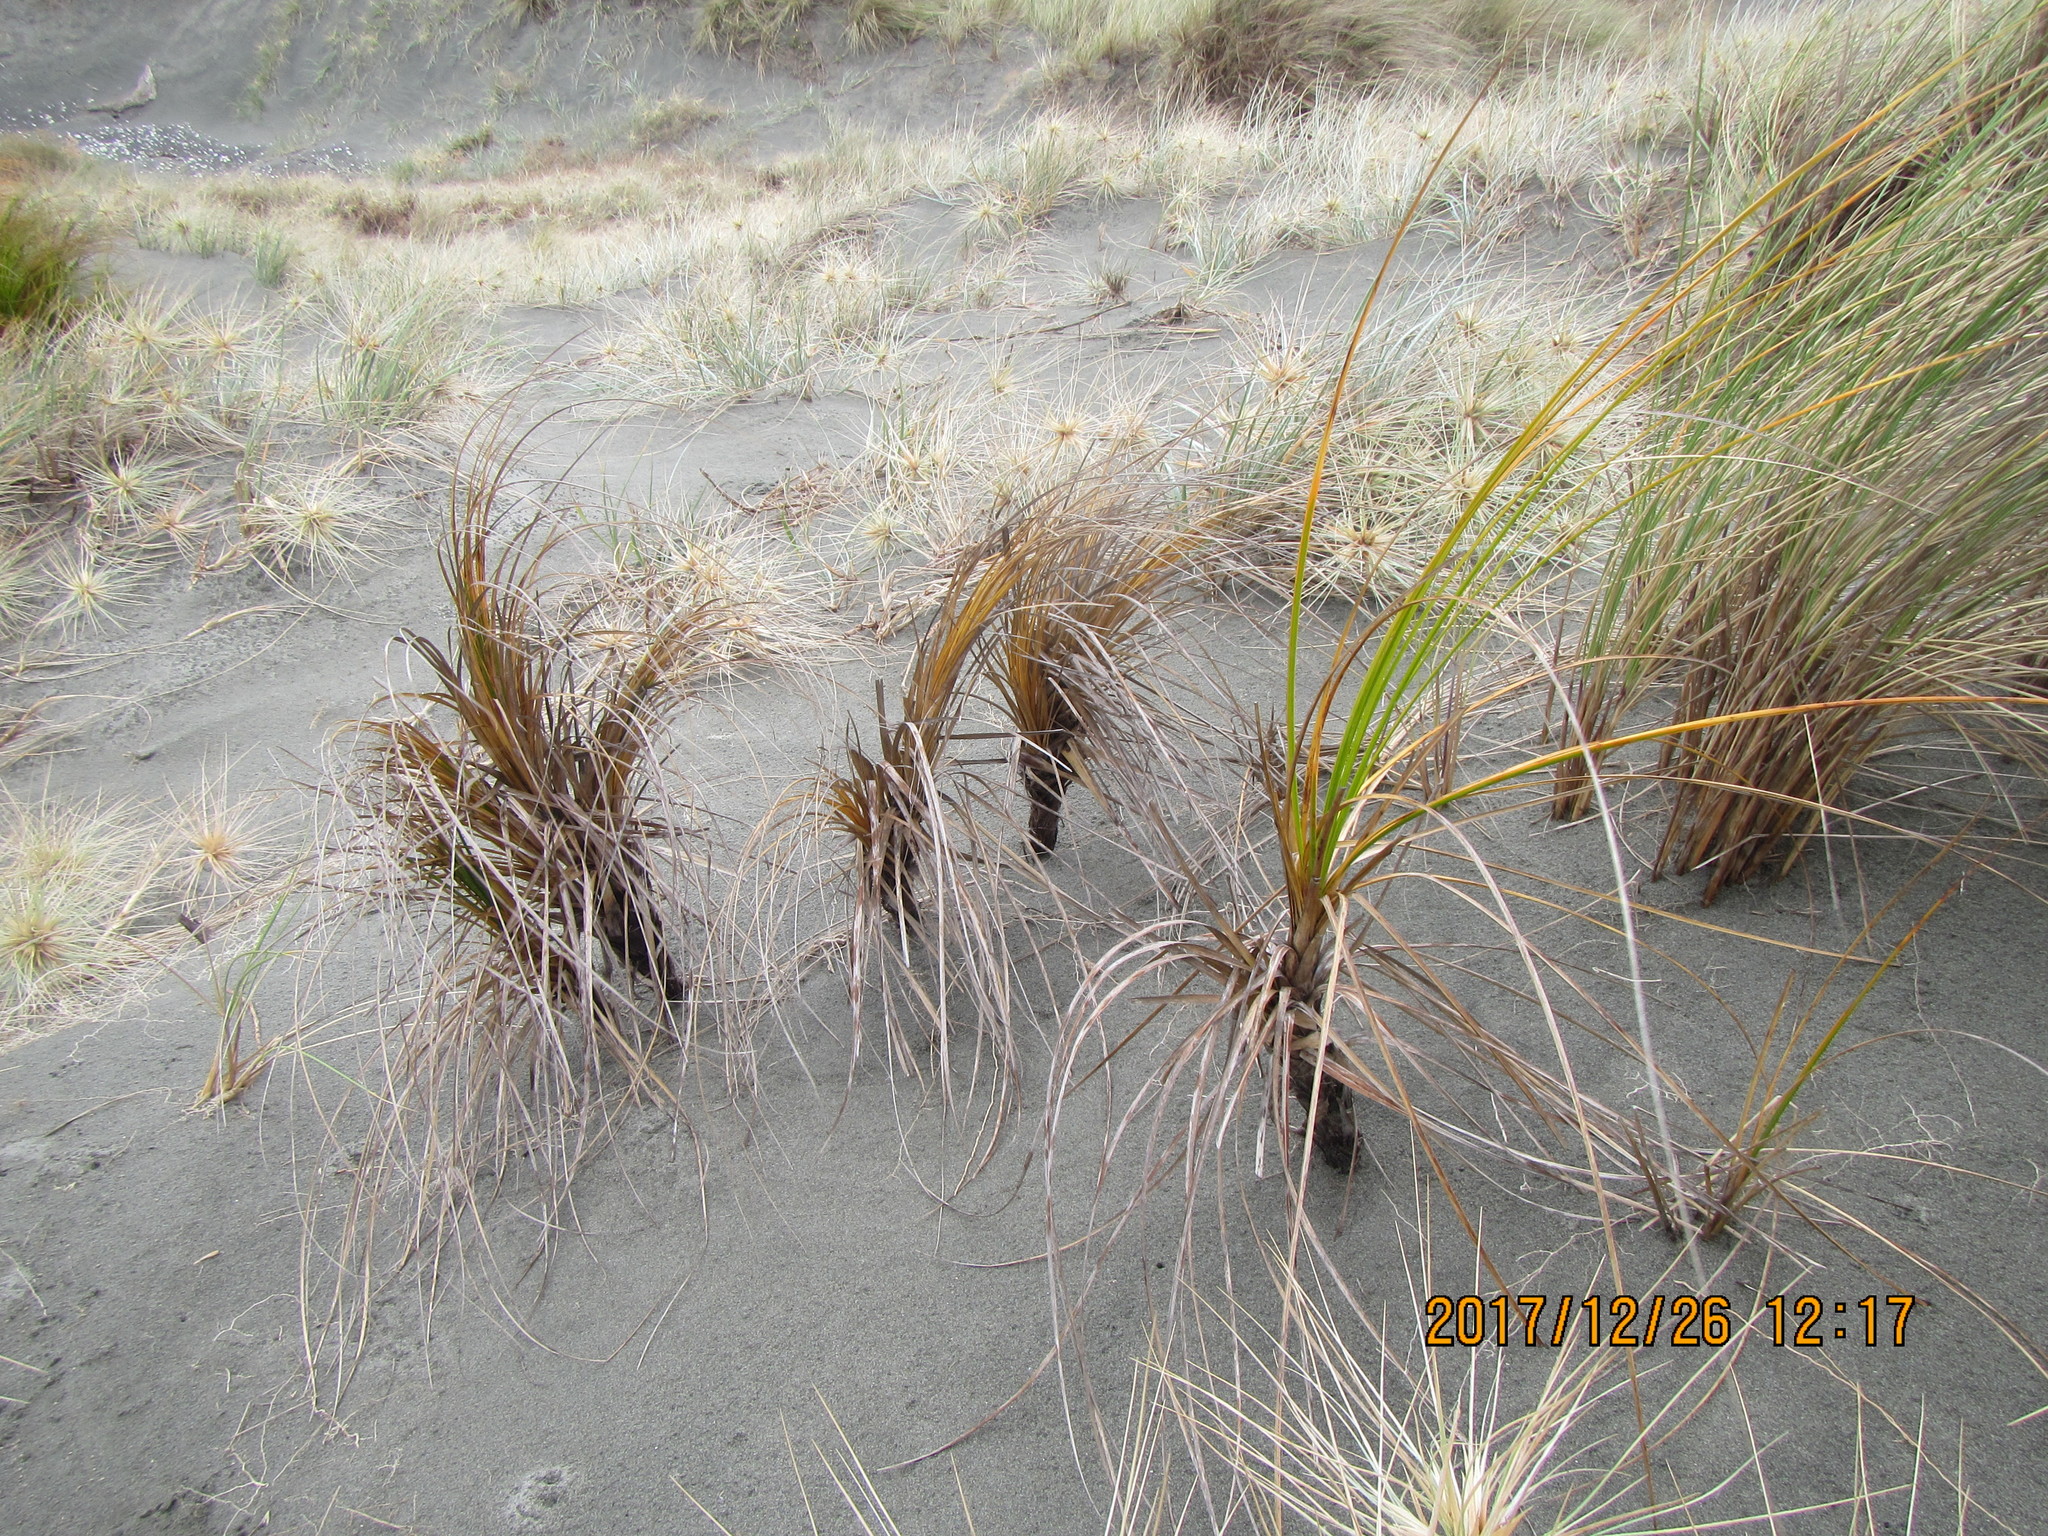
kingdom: Plantae
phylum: Tracheophyta
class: Liliopsida
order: Poales
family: Cyperaceae
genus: Ficinia
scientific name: Ficinia spiralis
